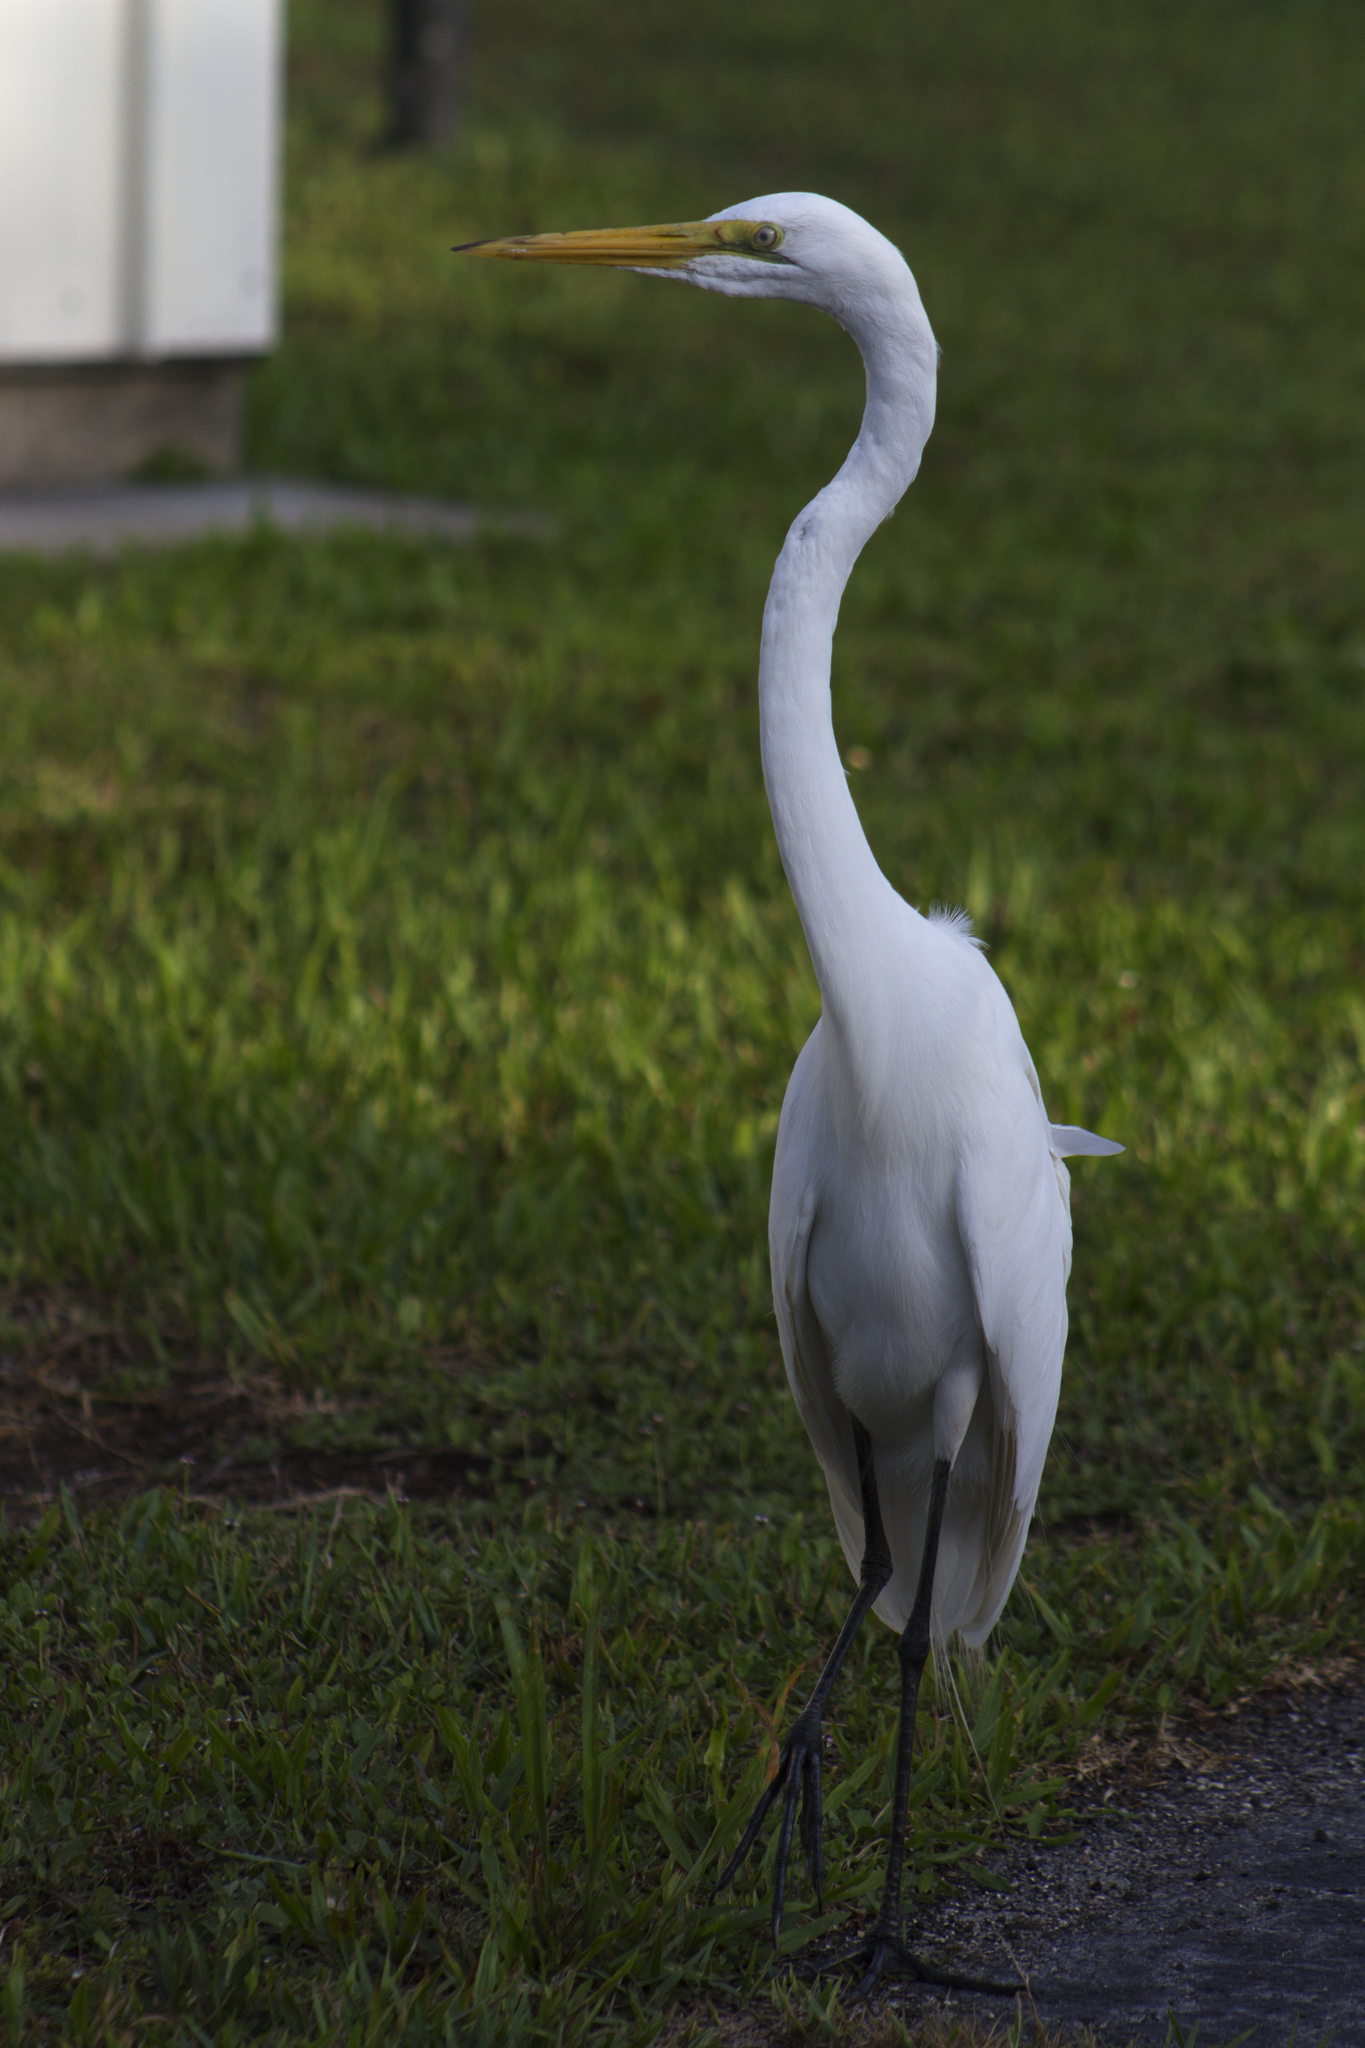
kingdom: Animalia
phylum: Chordata
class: Aves
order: Pelecaniformes
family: Ardeidae
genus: Ardea
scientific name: Ardea alba
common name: Great egret
